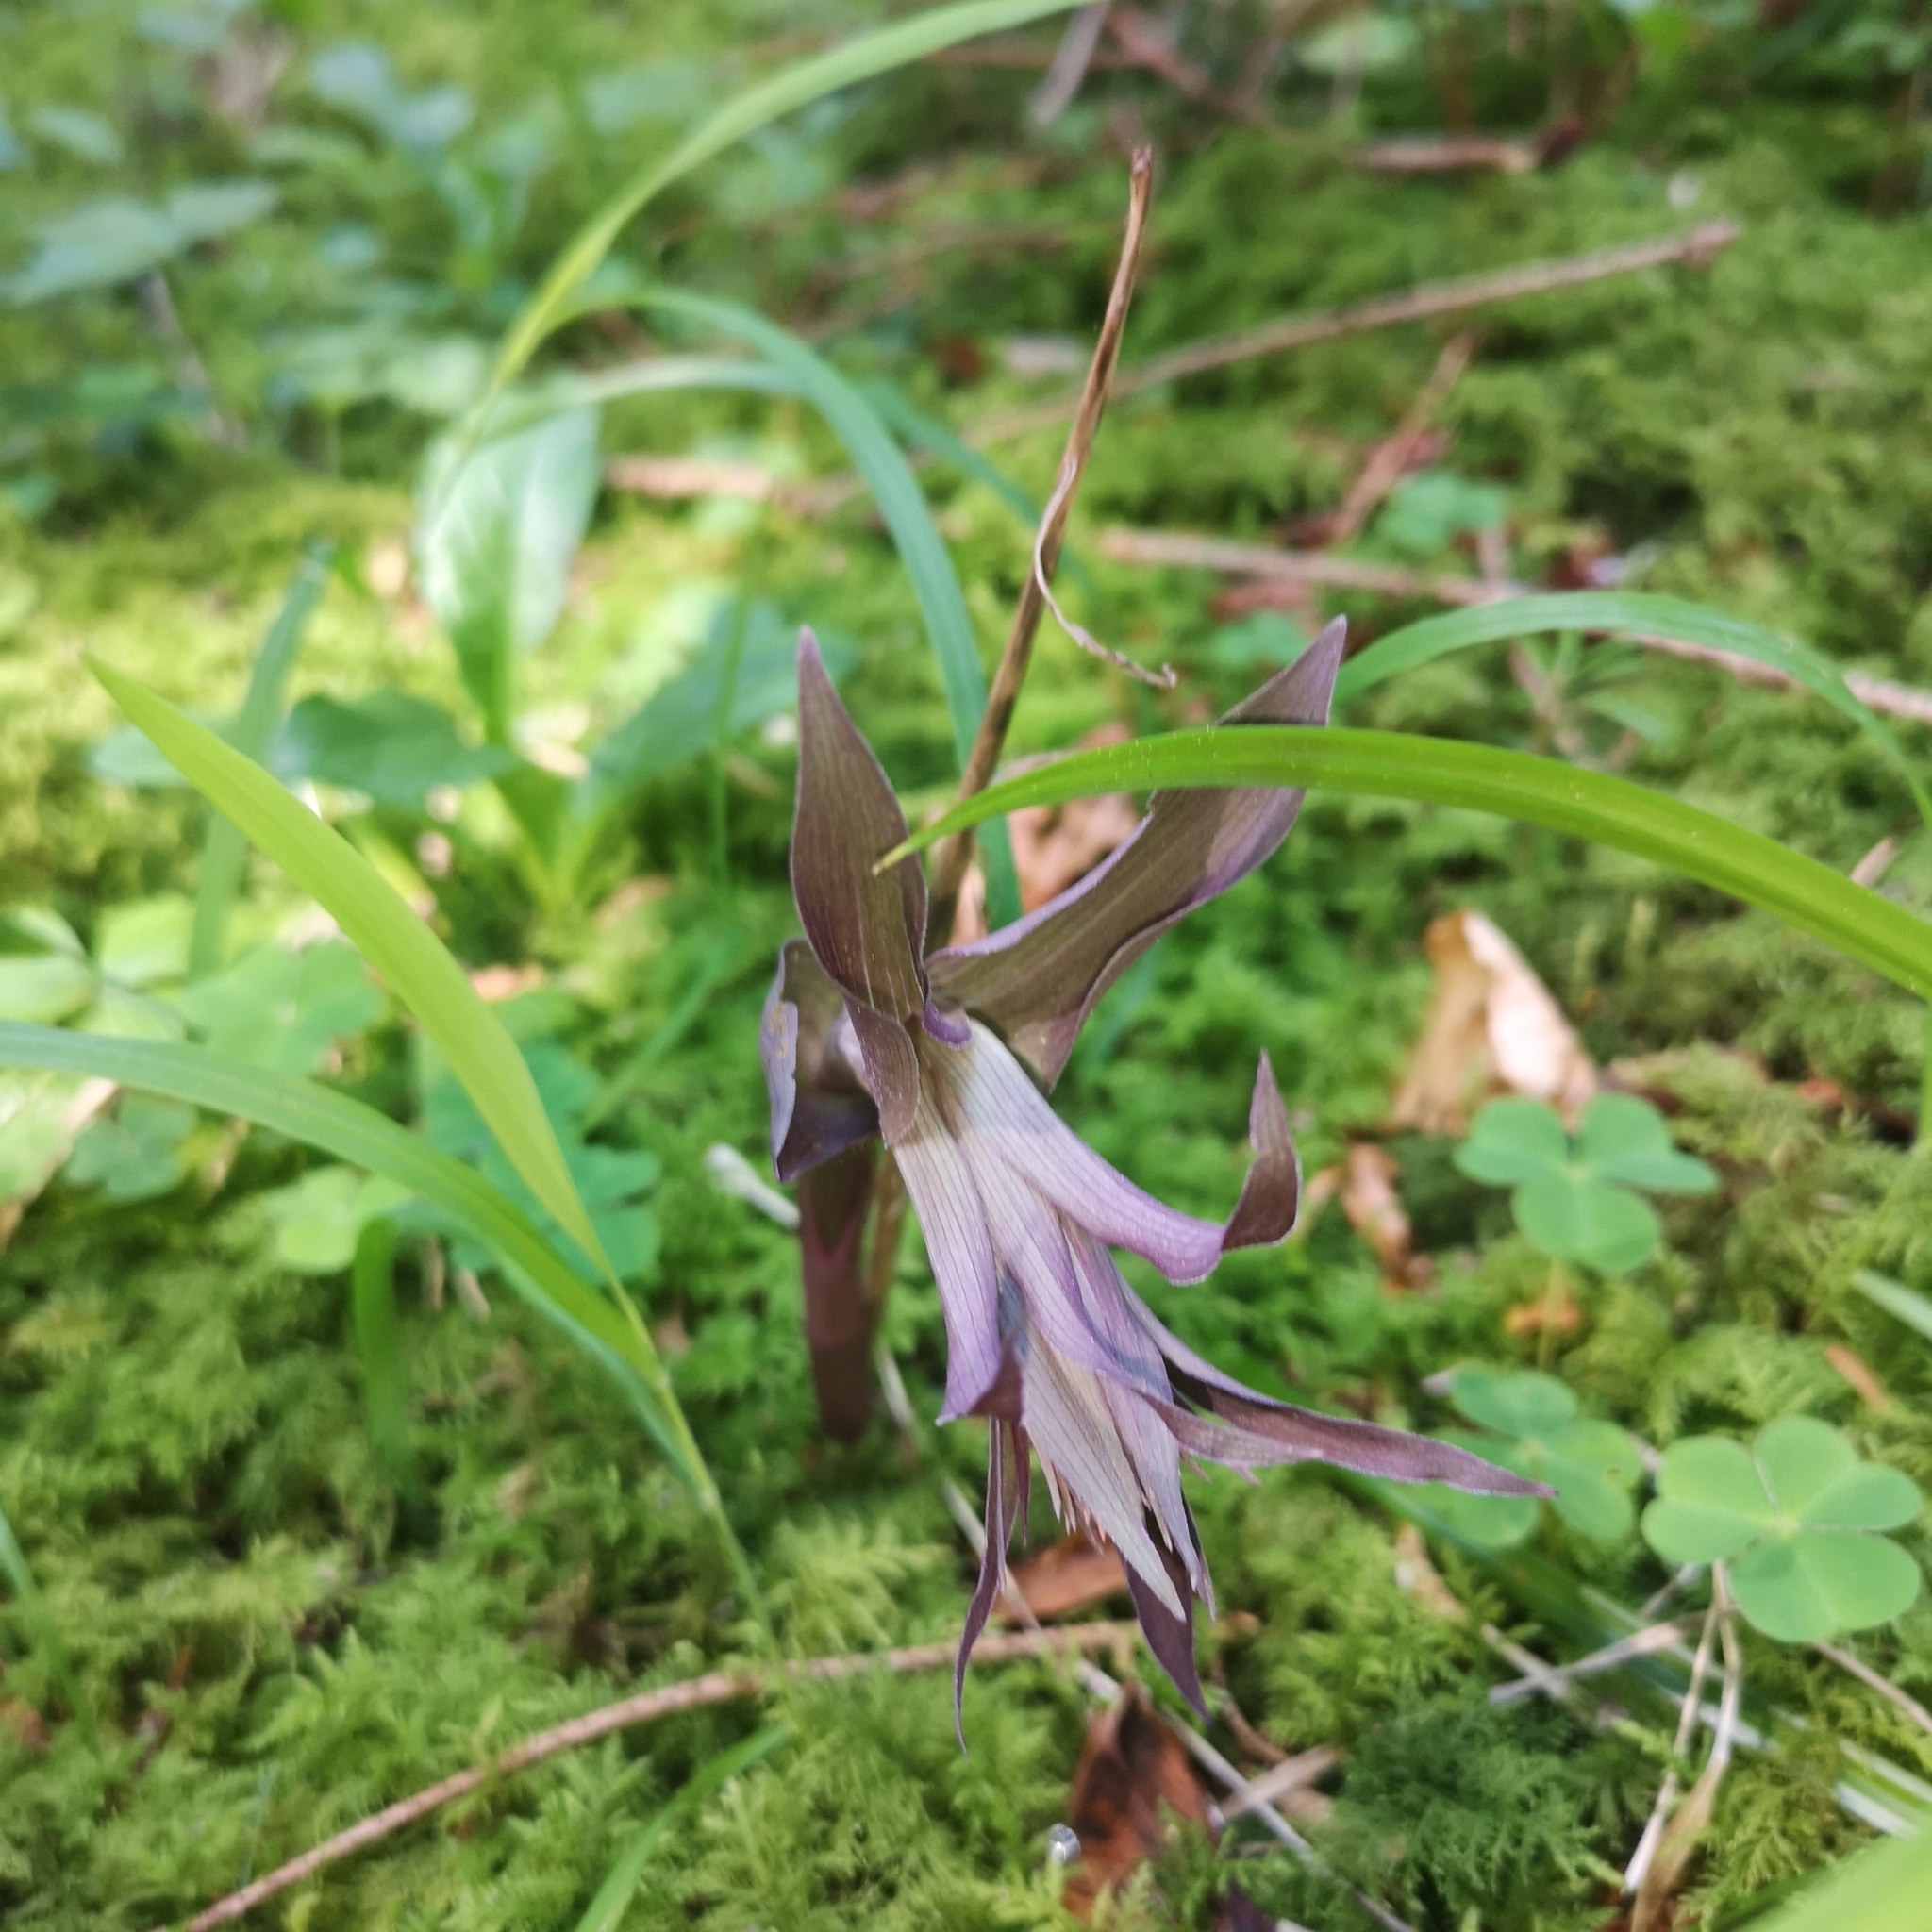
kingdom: Plantae
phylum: Tracheophyta
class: Liliopsida
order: Asparagales
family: Orchidaceae
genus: Epipactis
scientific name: Epipactis purpurata
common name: Violet helleborine
